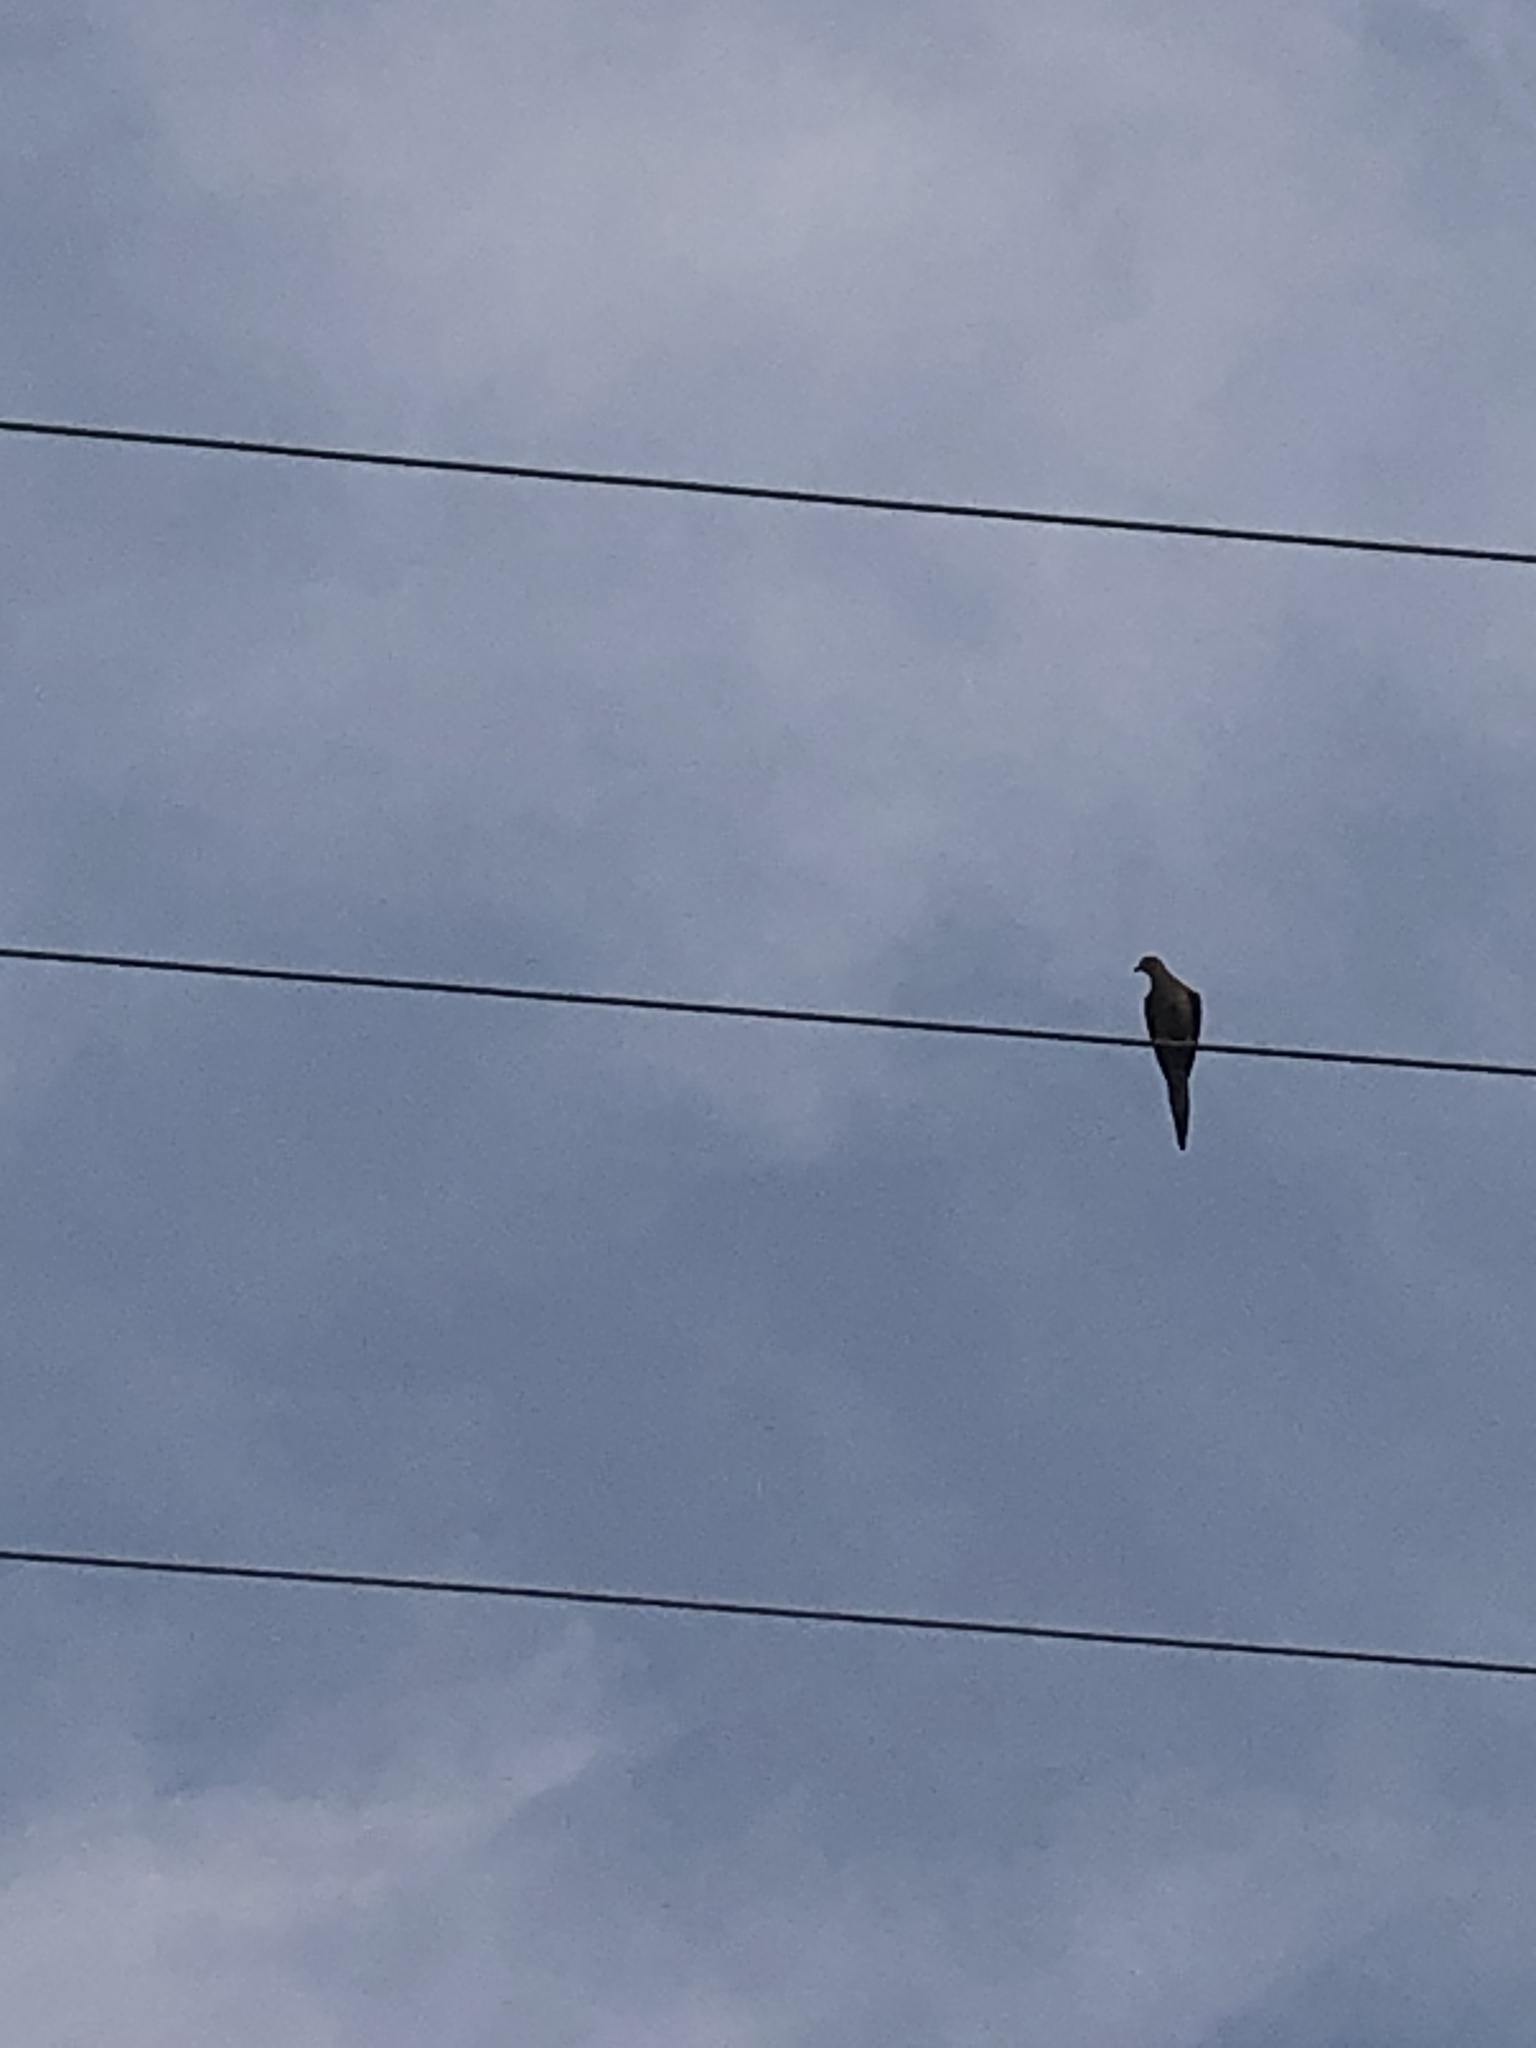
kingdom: Animalia
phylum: Chordata
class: Aves
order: Columbiformes
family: Columbidae
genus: Zenaida
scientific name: Zenaida macroura
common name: Mourning dove
